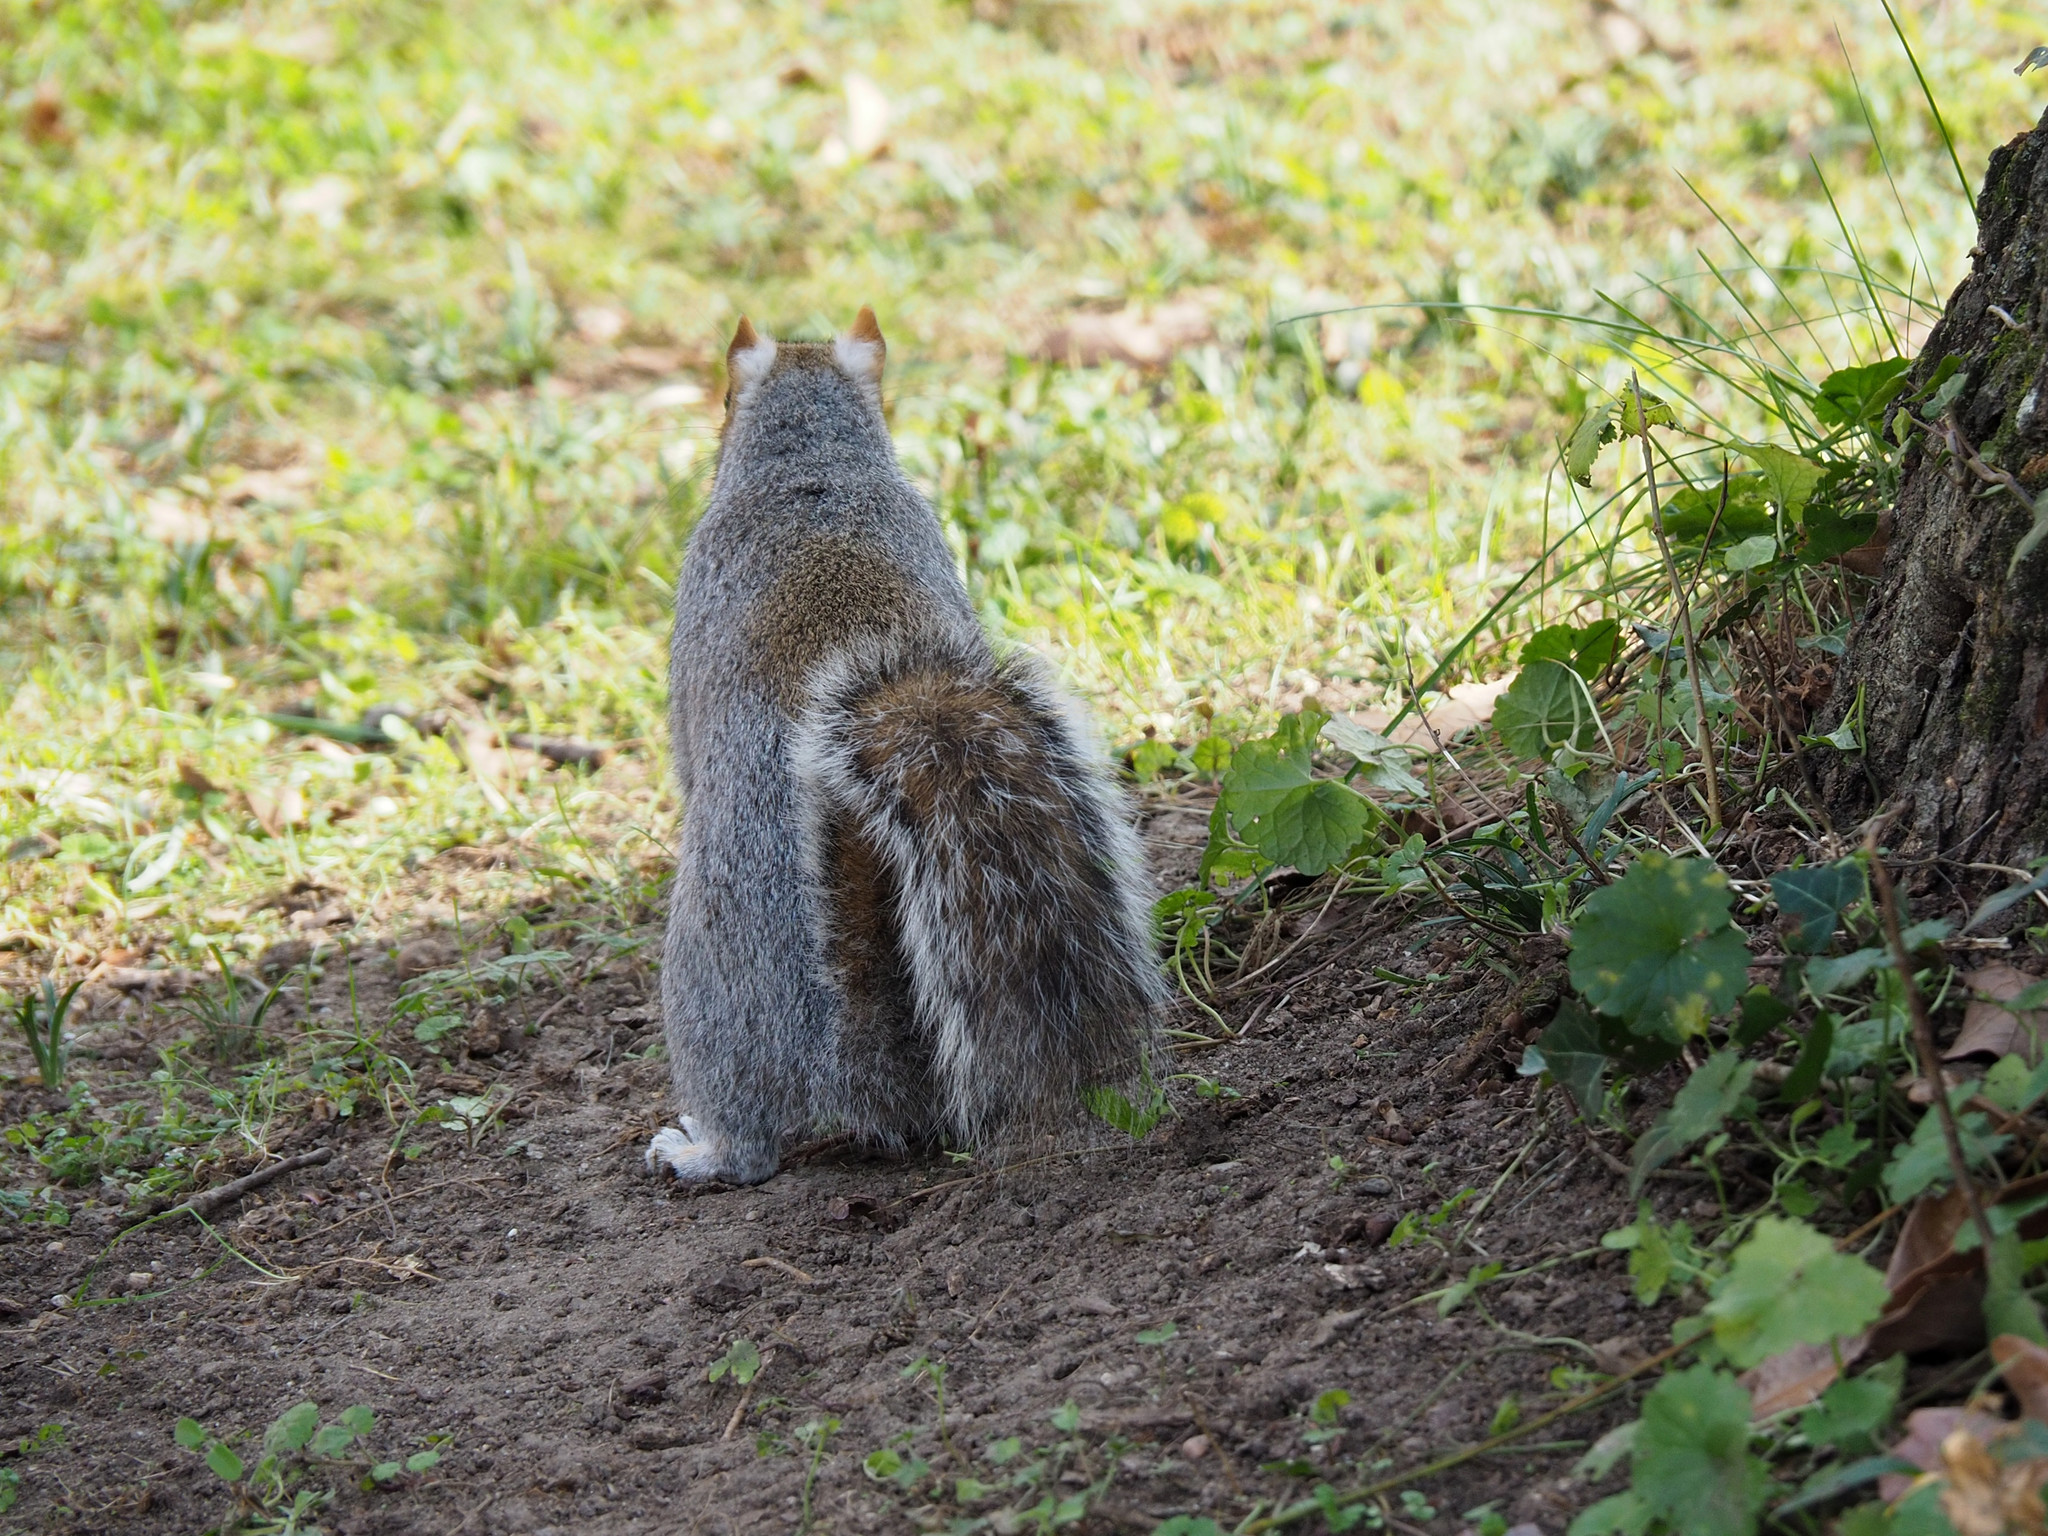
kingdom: Animalia
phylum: Chordata
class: Mammalia
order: Rodentia
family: Sciuridae
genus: Sciurus
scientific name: Sciurus carolinensis
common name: Eastern gray squirrel
